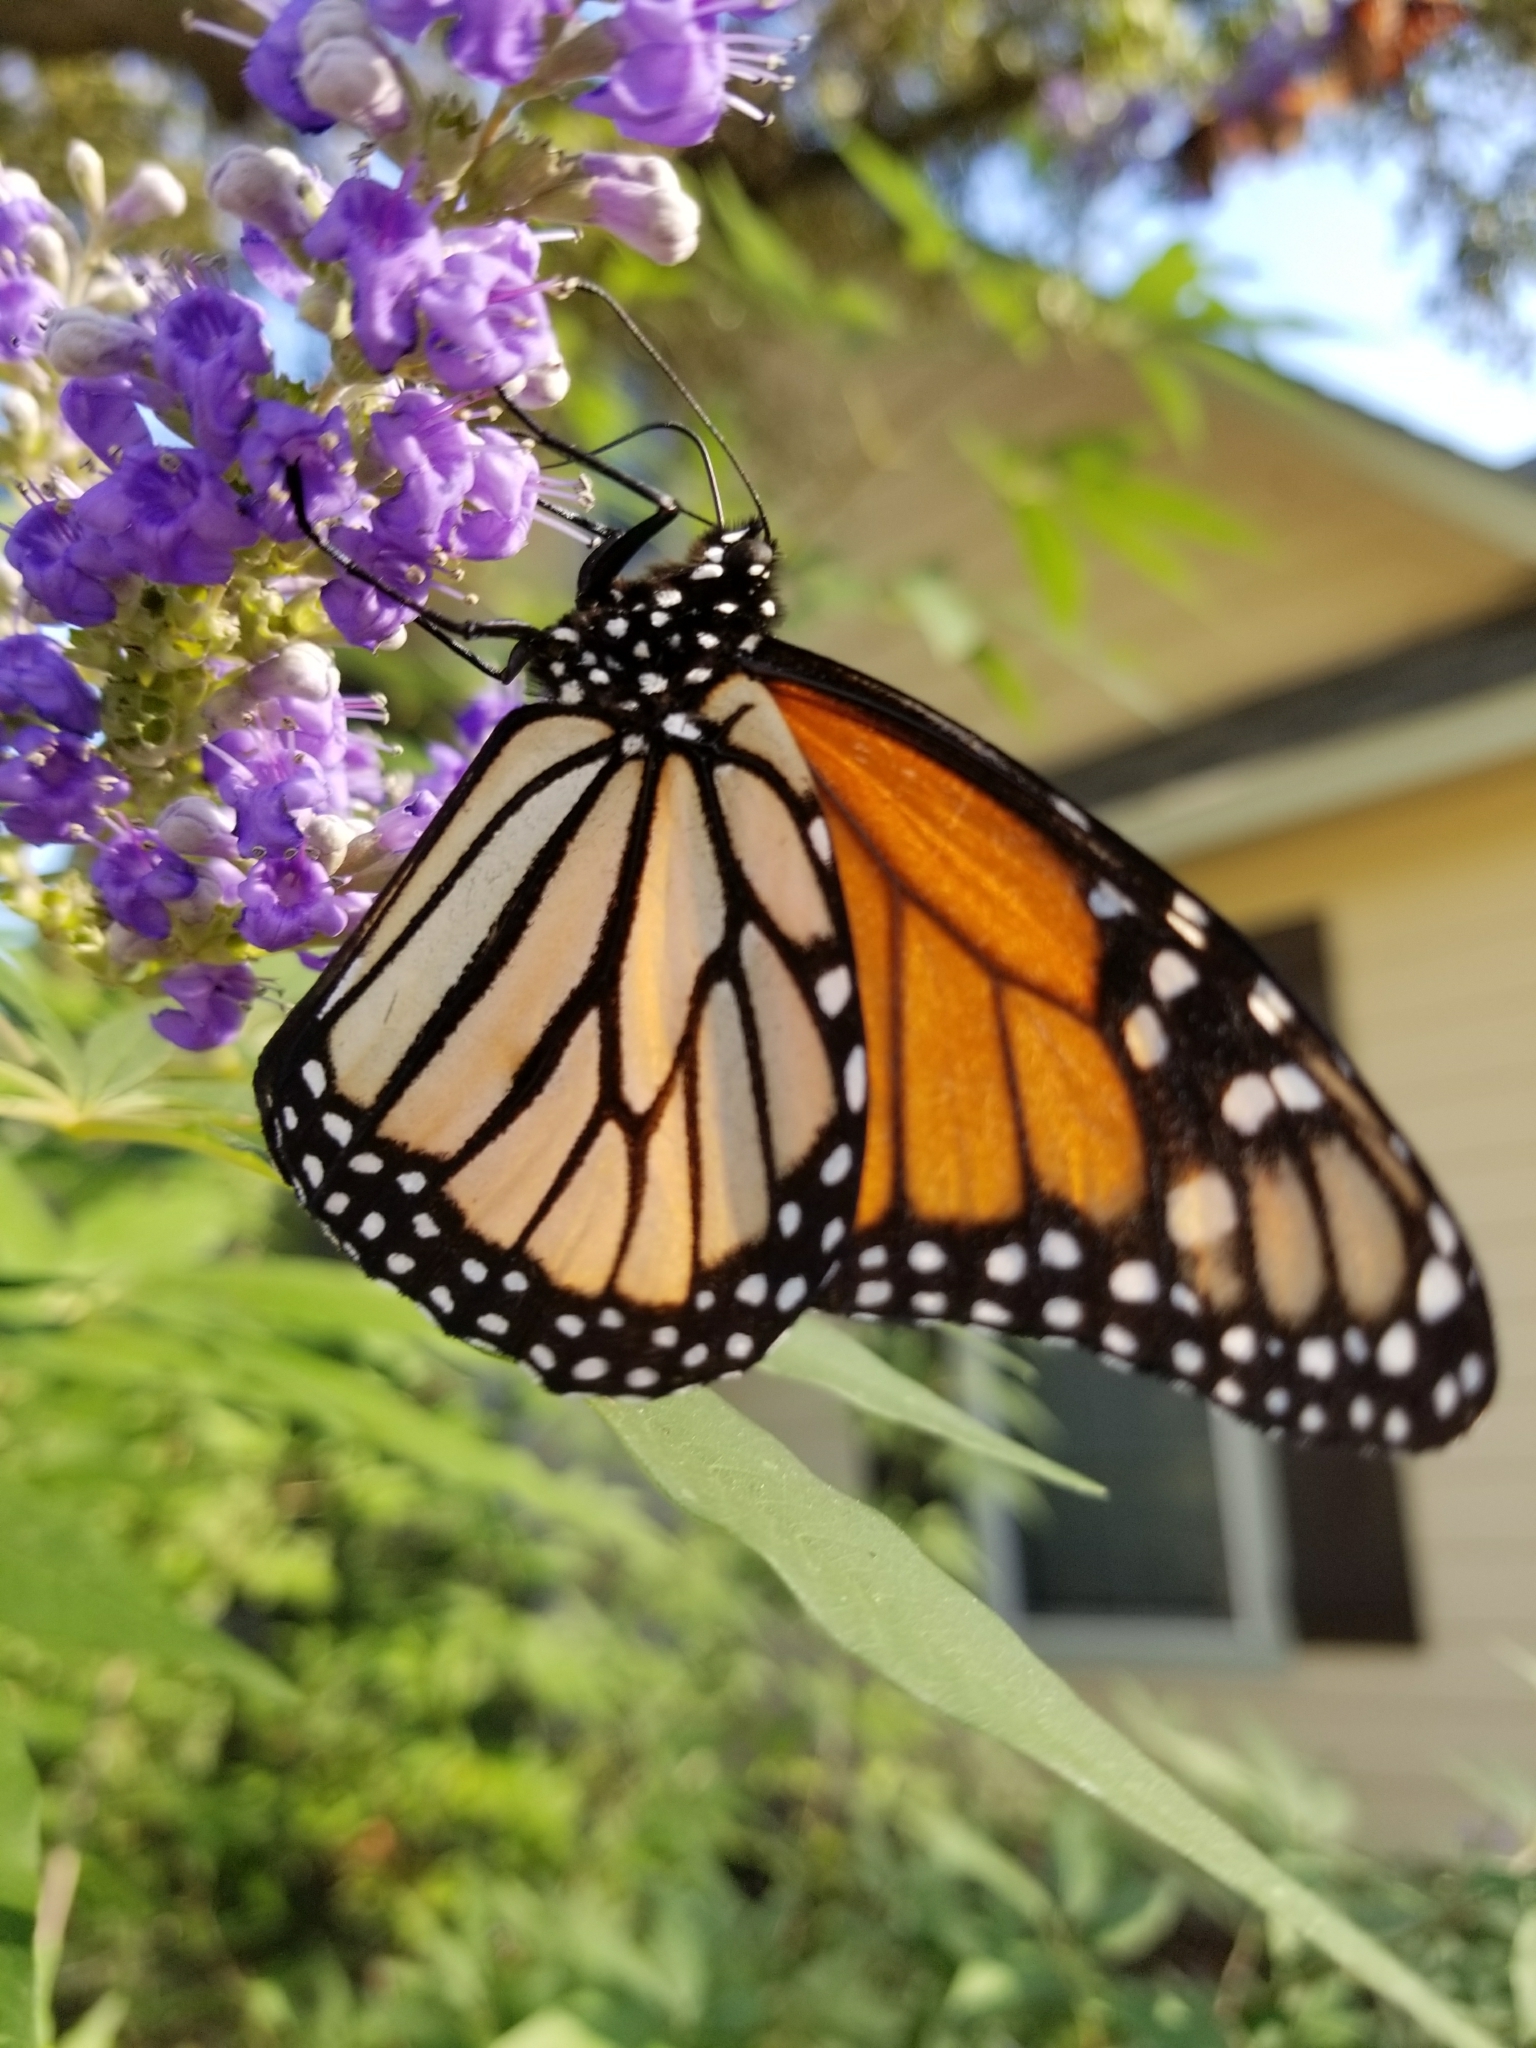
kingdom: Animalia
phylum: Arthropoda
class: Insecta
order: Lepidoptera
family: Nymphalidae
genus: Danaus
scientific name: Danaus plexippus
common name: Monarch
